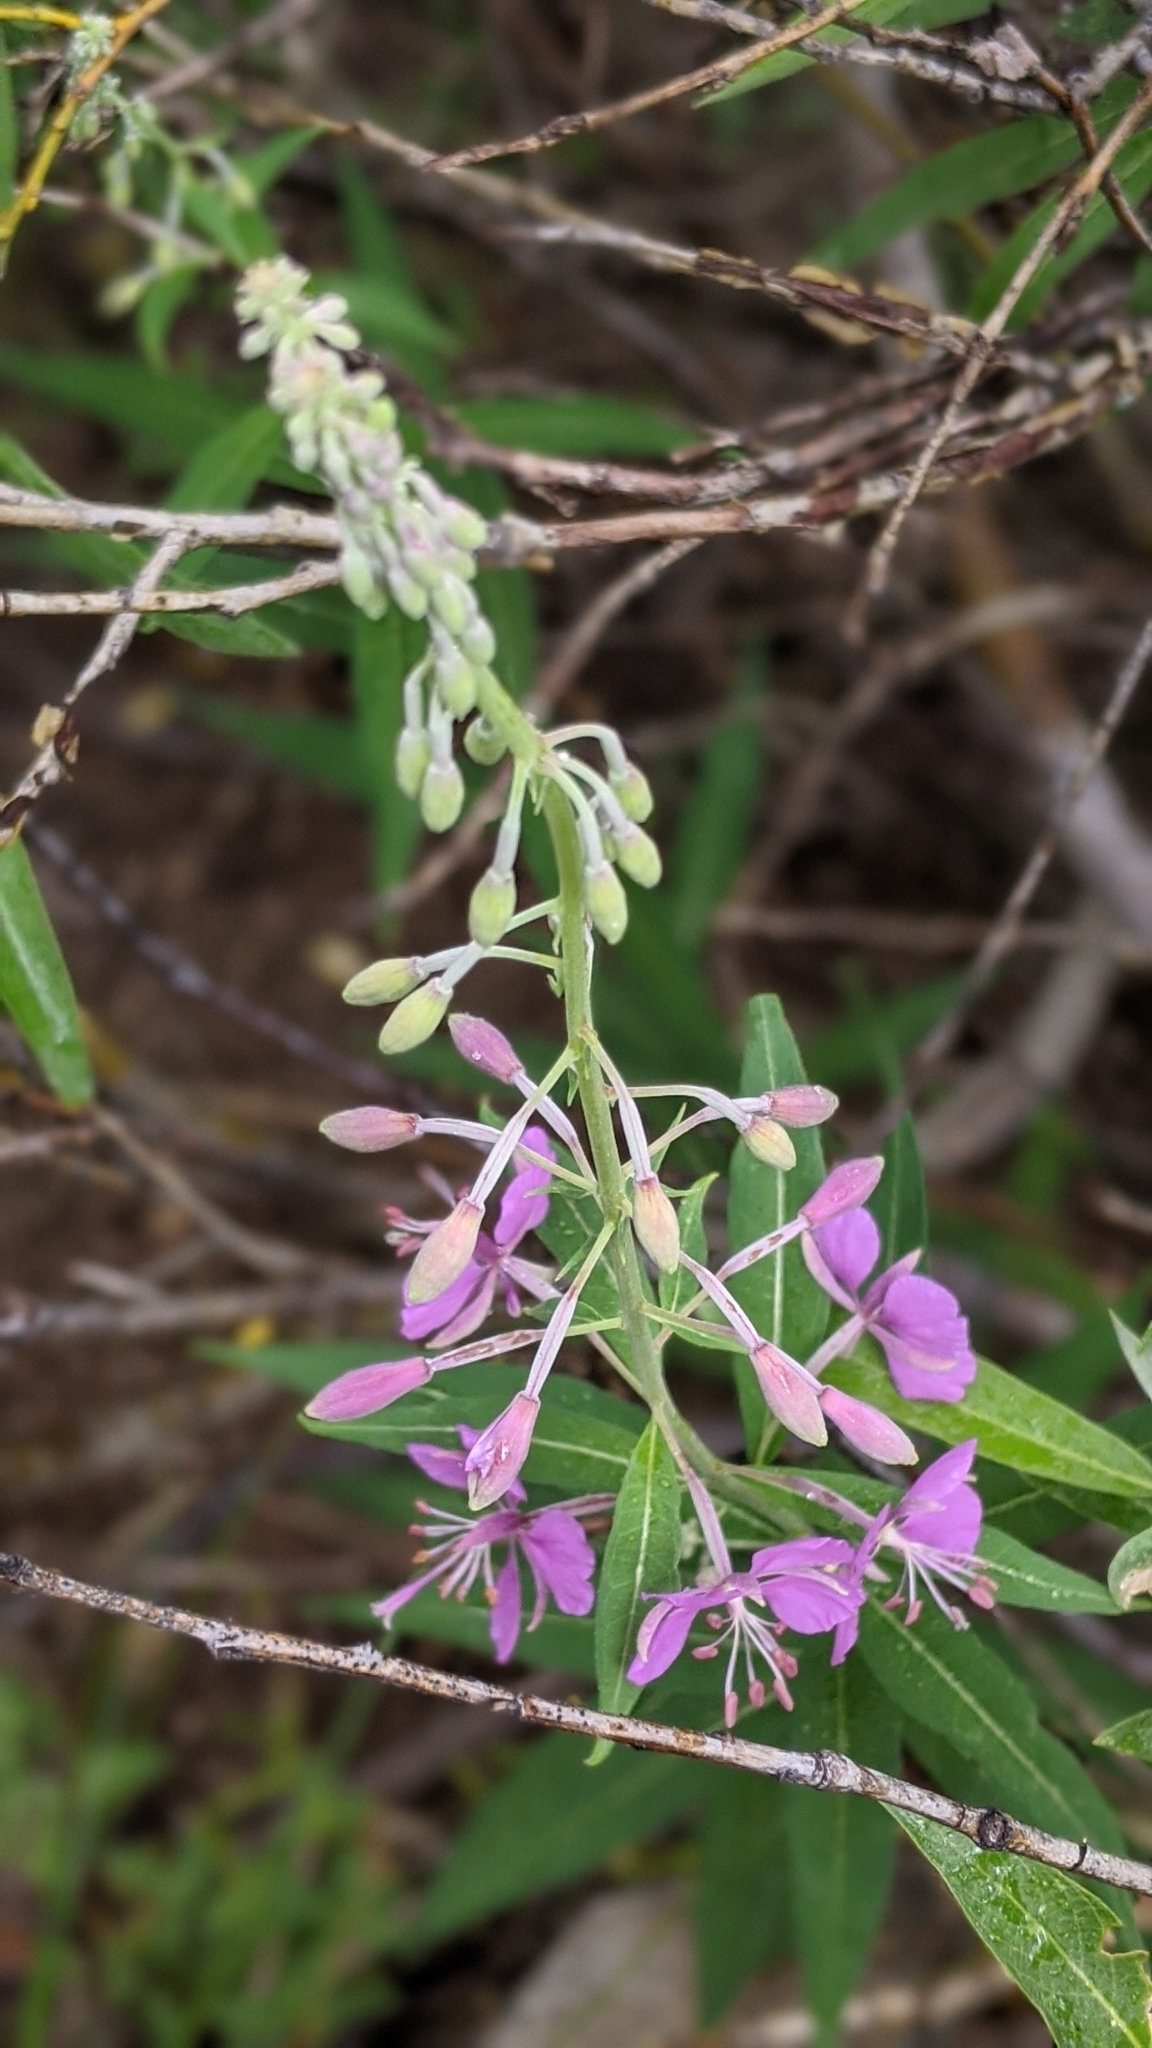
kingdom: Plantae
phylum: Tracheophyta
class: Magnoliopsida
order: Myrtales
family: Onagraceae
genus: Chamaenerion
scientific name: Chamaenerion angustifolium
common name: Fireweed
